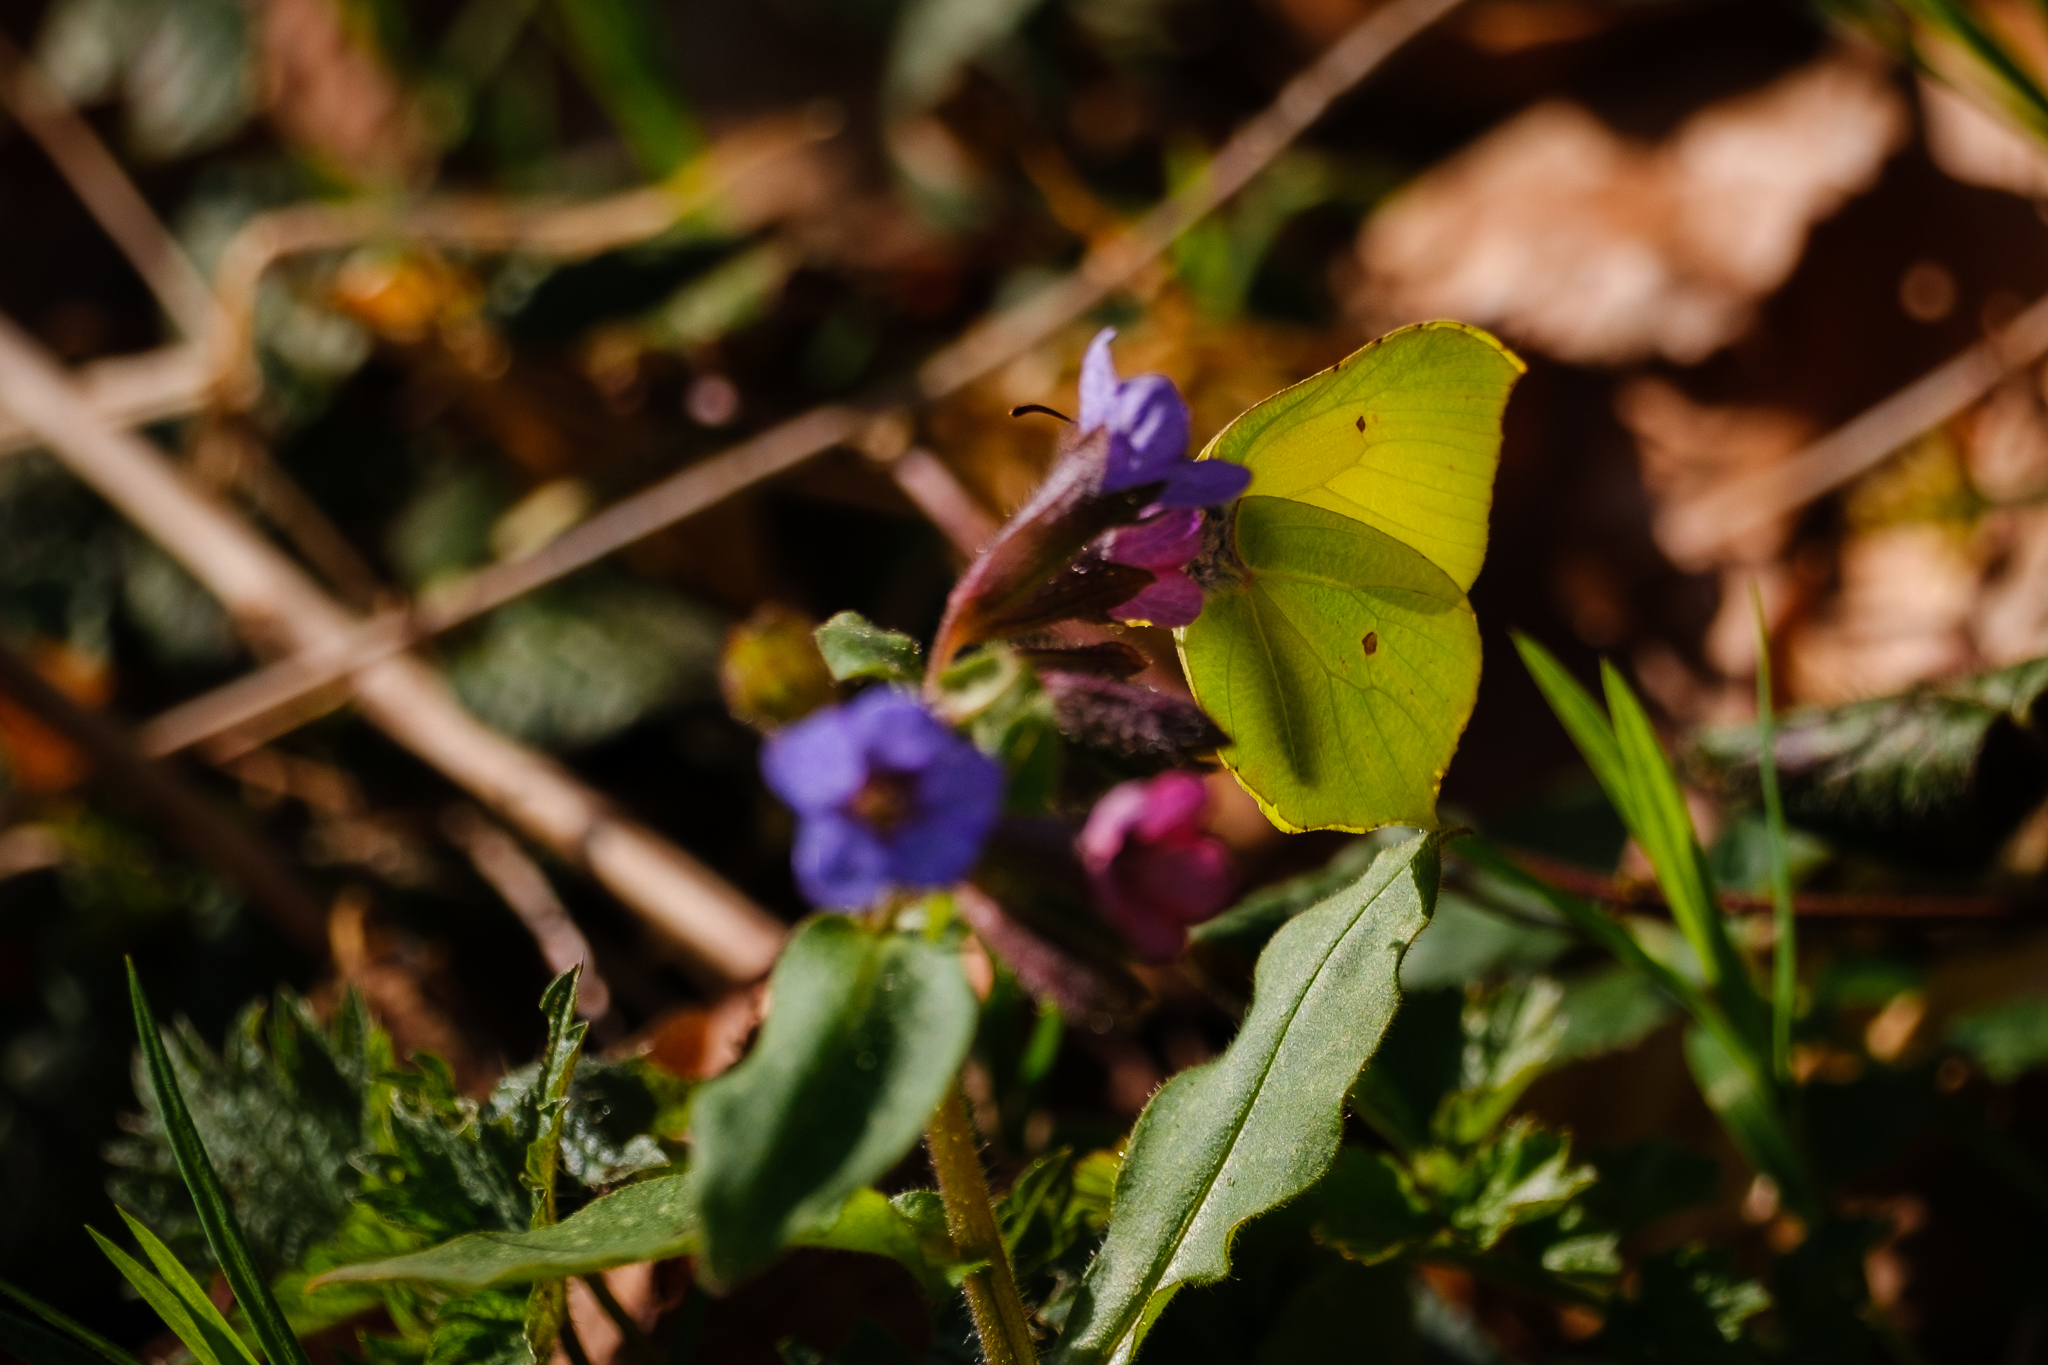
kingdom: Animalia
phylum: Arthropoda
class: Insecta
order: Lepidoptera
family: Pieridae
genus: Gonepteryx
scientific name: Gonepteryx rhamni
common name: Brimstone
